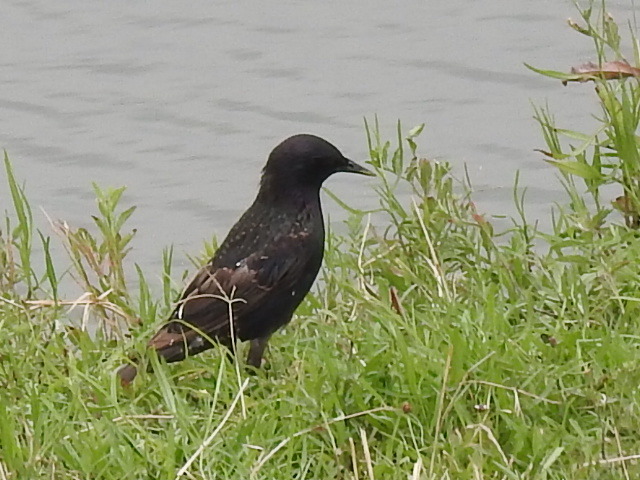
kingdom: Animalia
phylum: Chordata
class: Aves
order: Passeriformes
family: Sturnidae
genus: Sturnus
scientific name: Sturnus vulgaris
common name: Common starling
